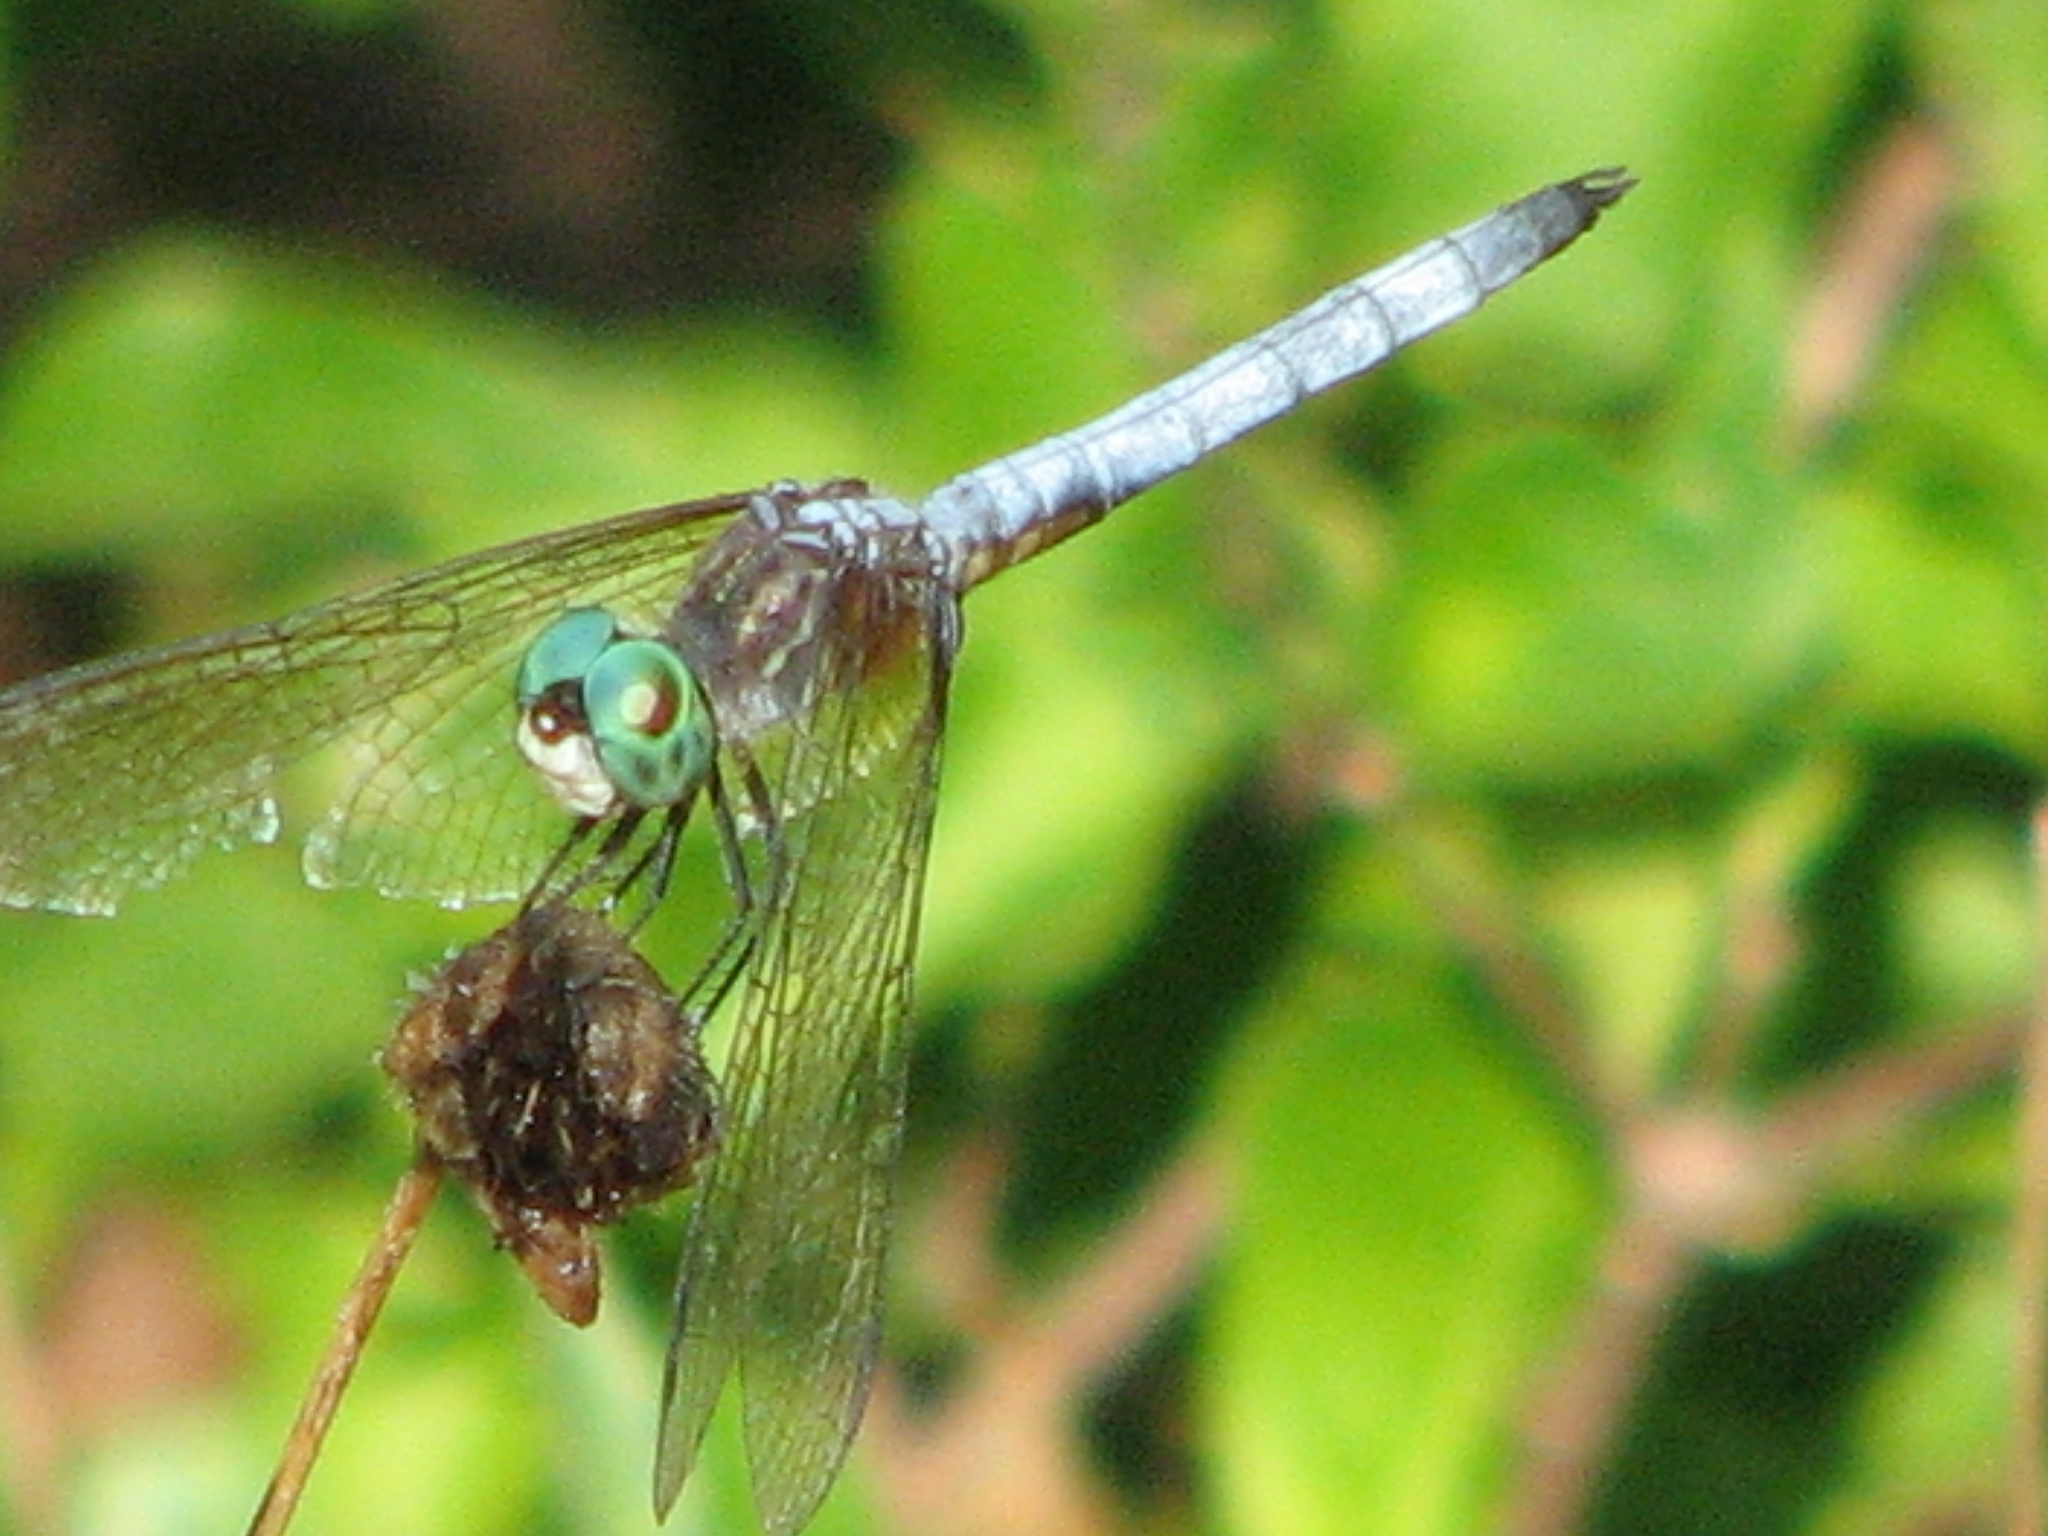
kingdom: Animalia
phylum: Arthropoda
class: Insecta
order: Odonata
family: Libellulidae
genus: Pachydiplax
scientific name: Pachydiplax longipennis
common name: Blue dasher
